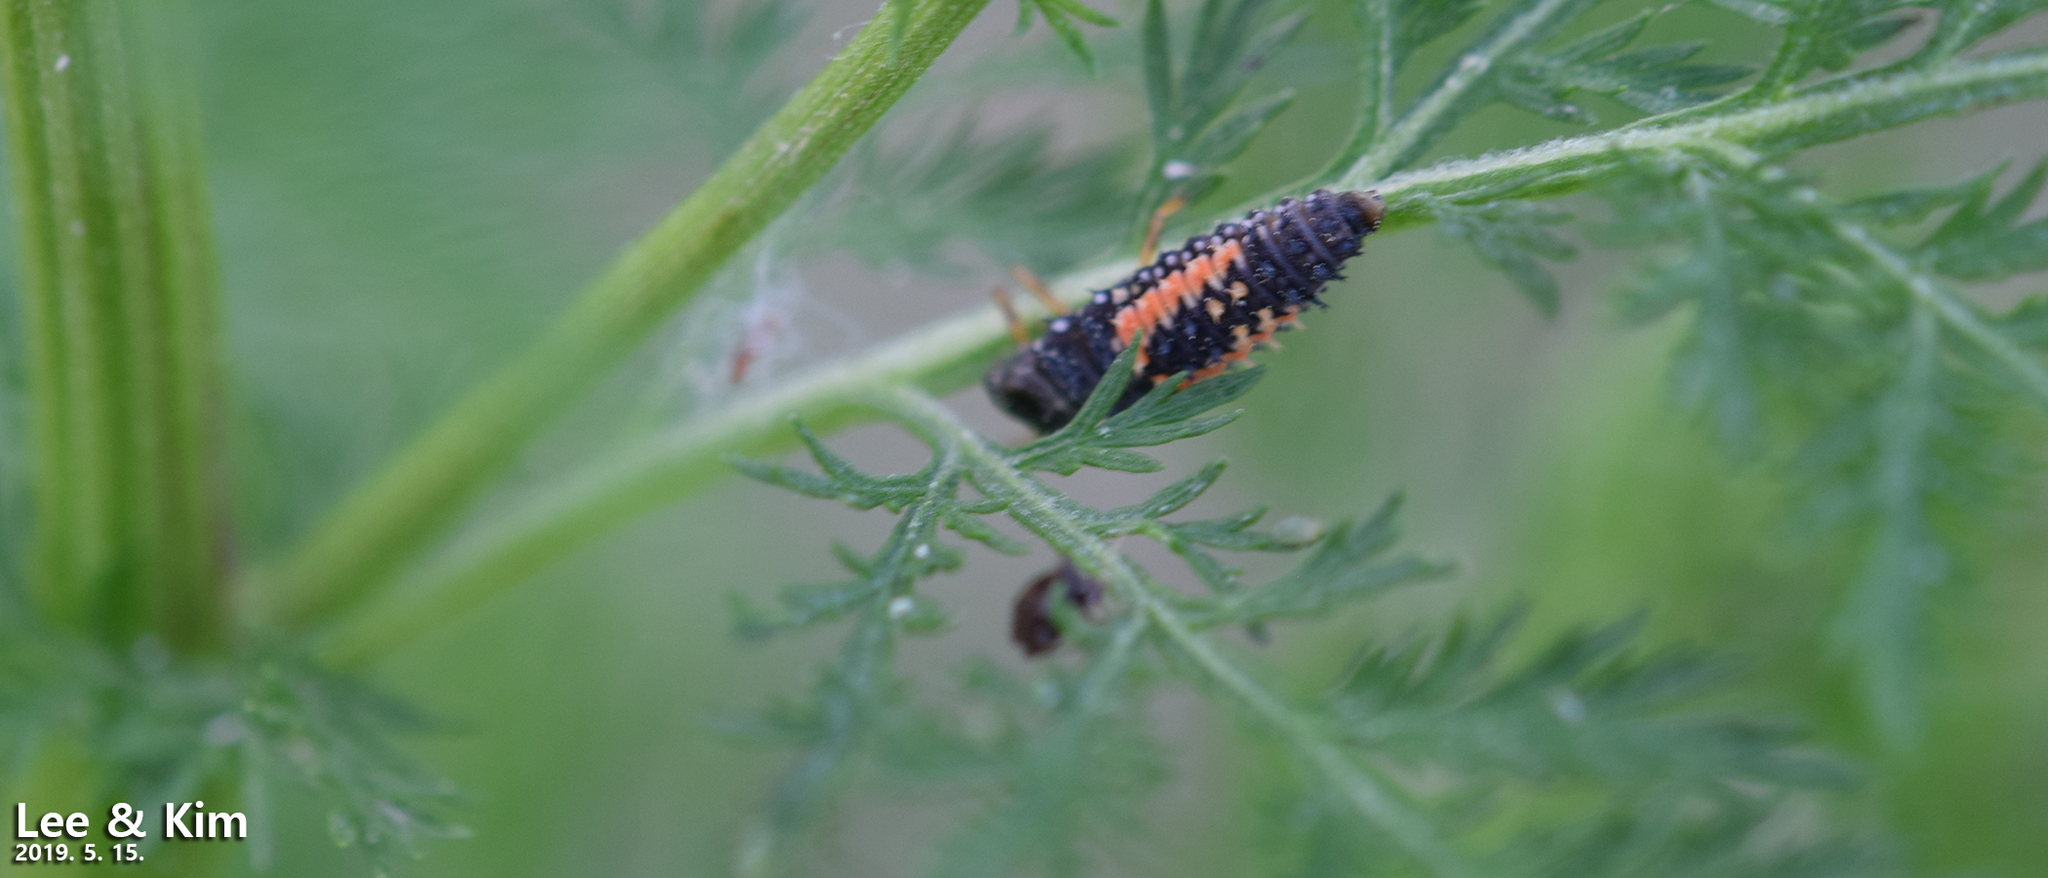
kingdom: Animalia
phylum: Arthropoda
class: Insecta
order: Coleoptera
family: Coccinellidae
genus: Harmonia
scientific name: Harmonia axyridis
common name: Harlequin ladybird
